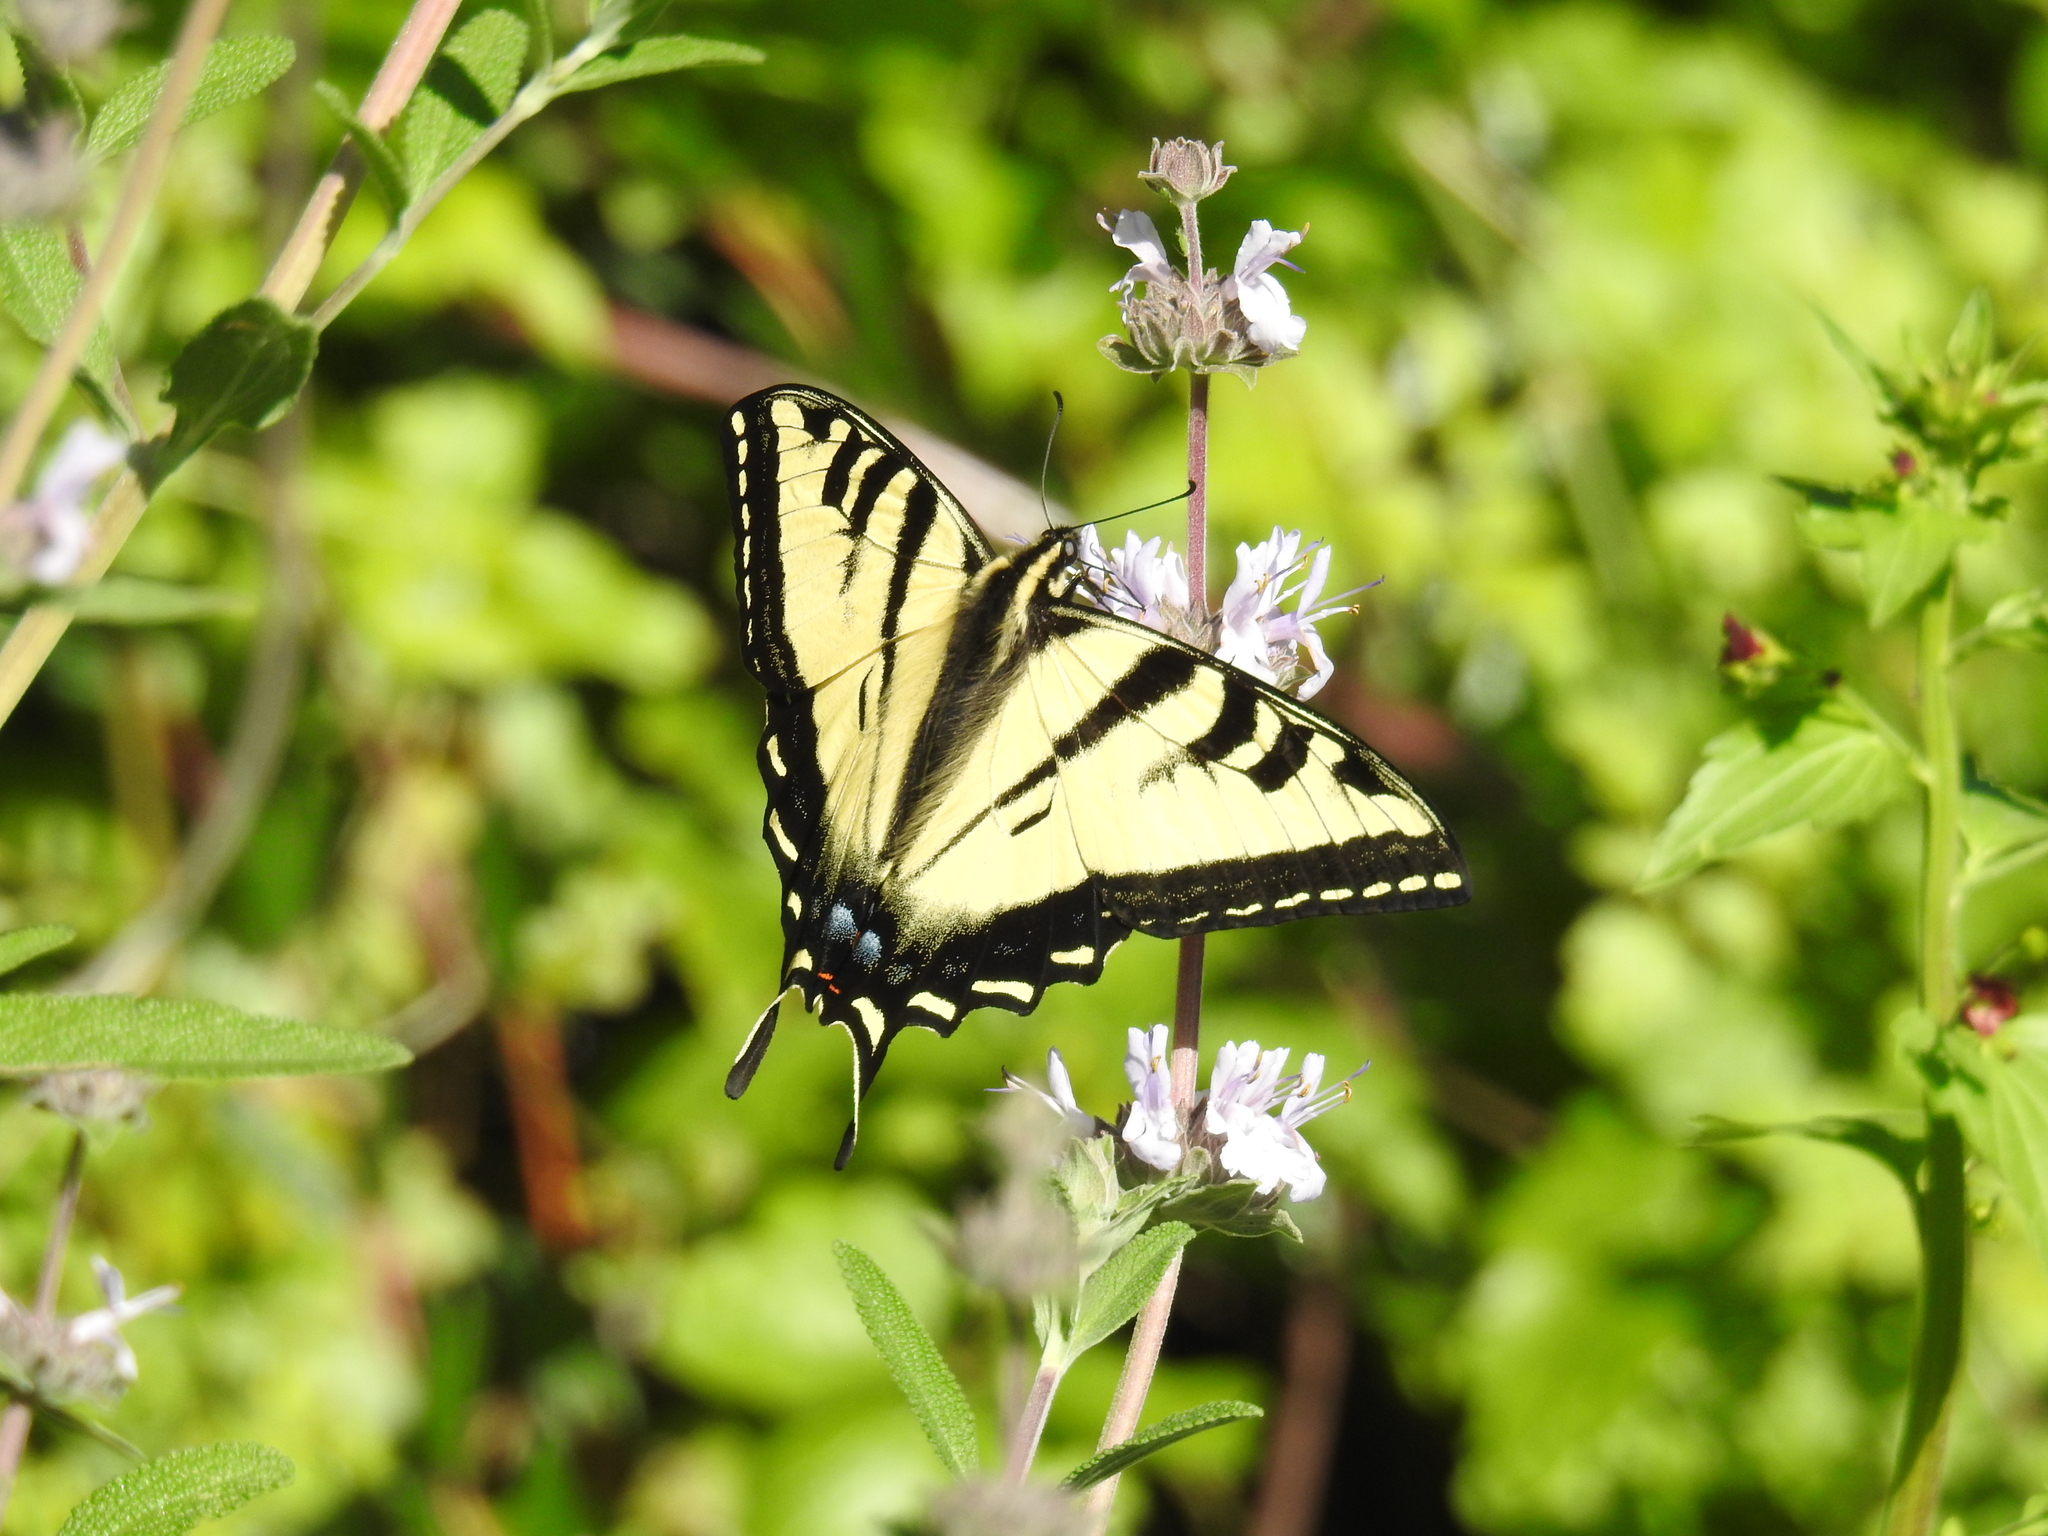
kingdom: Animalia
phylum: Arthropoda
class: Insecta
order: Lepidoptera
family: Papilionidae
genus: Papilio
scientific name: Papilio rutulus
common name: Western tiger swallowtail
